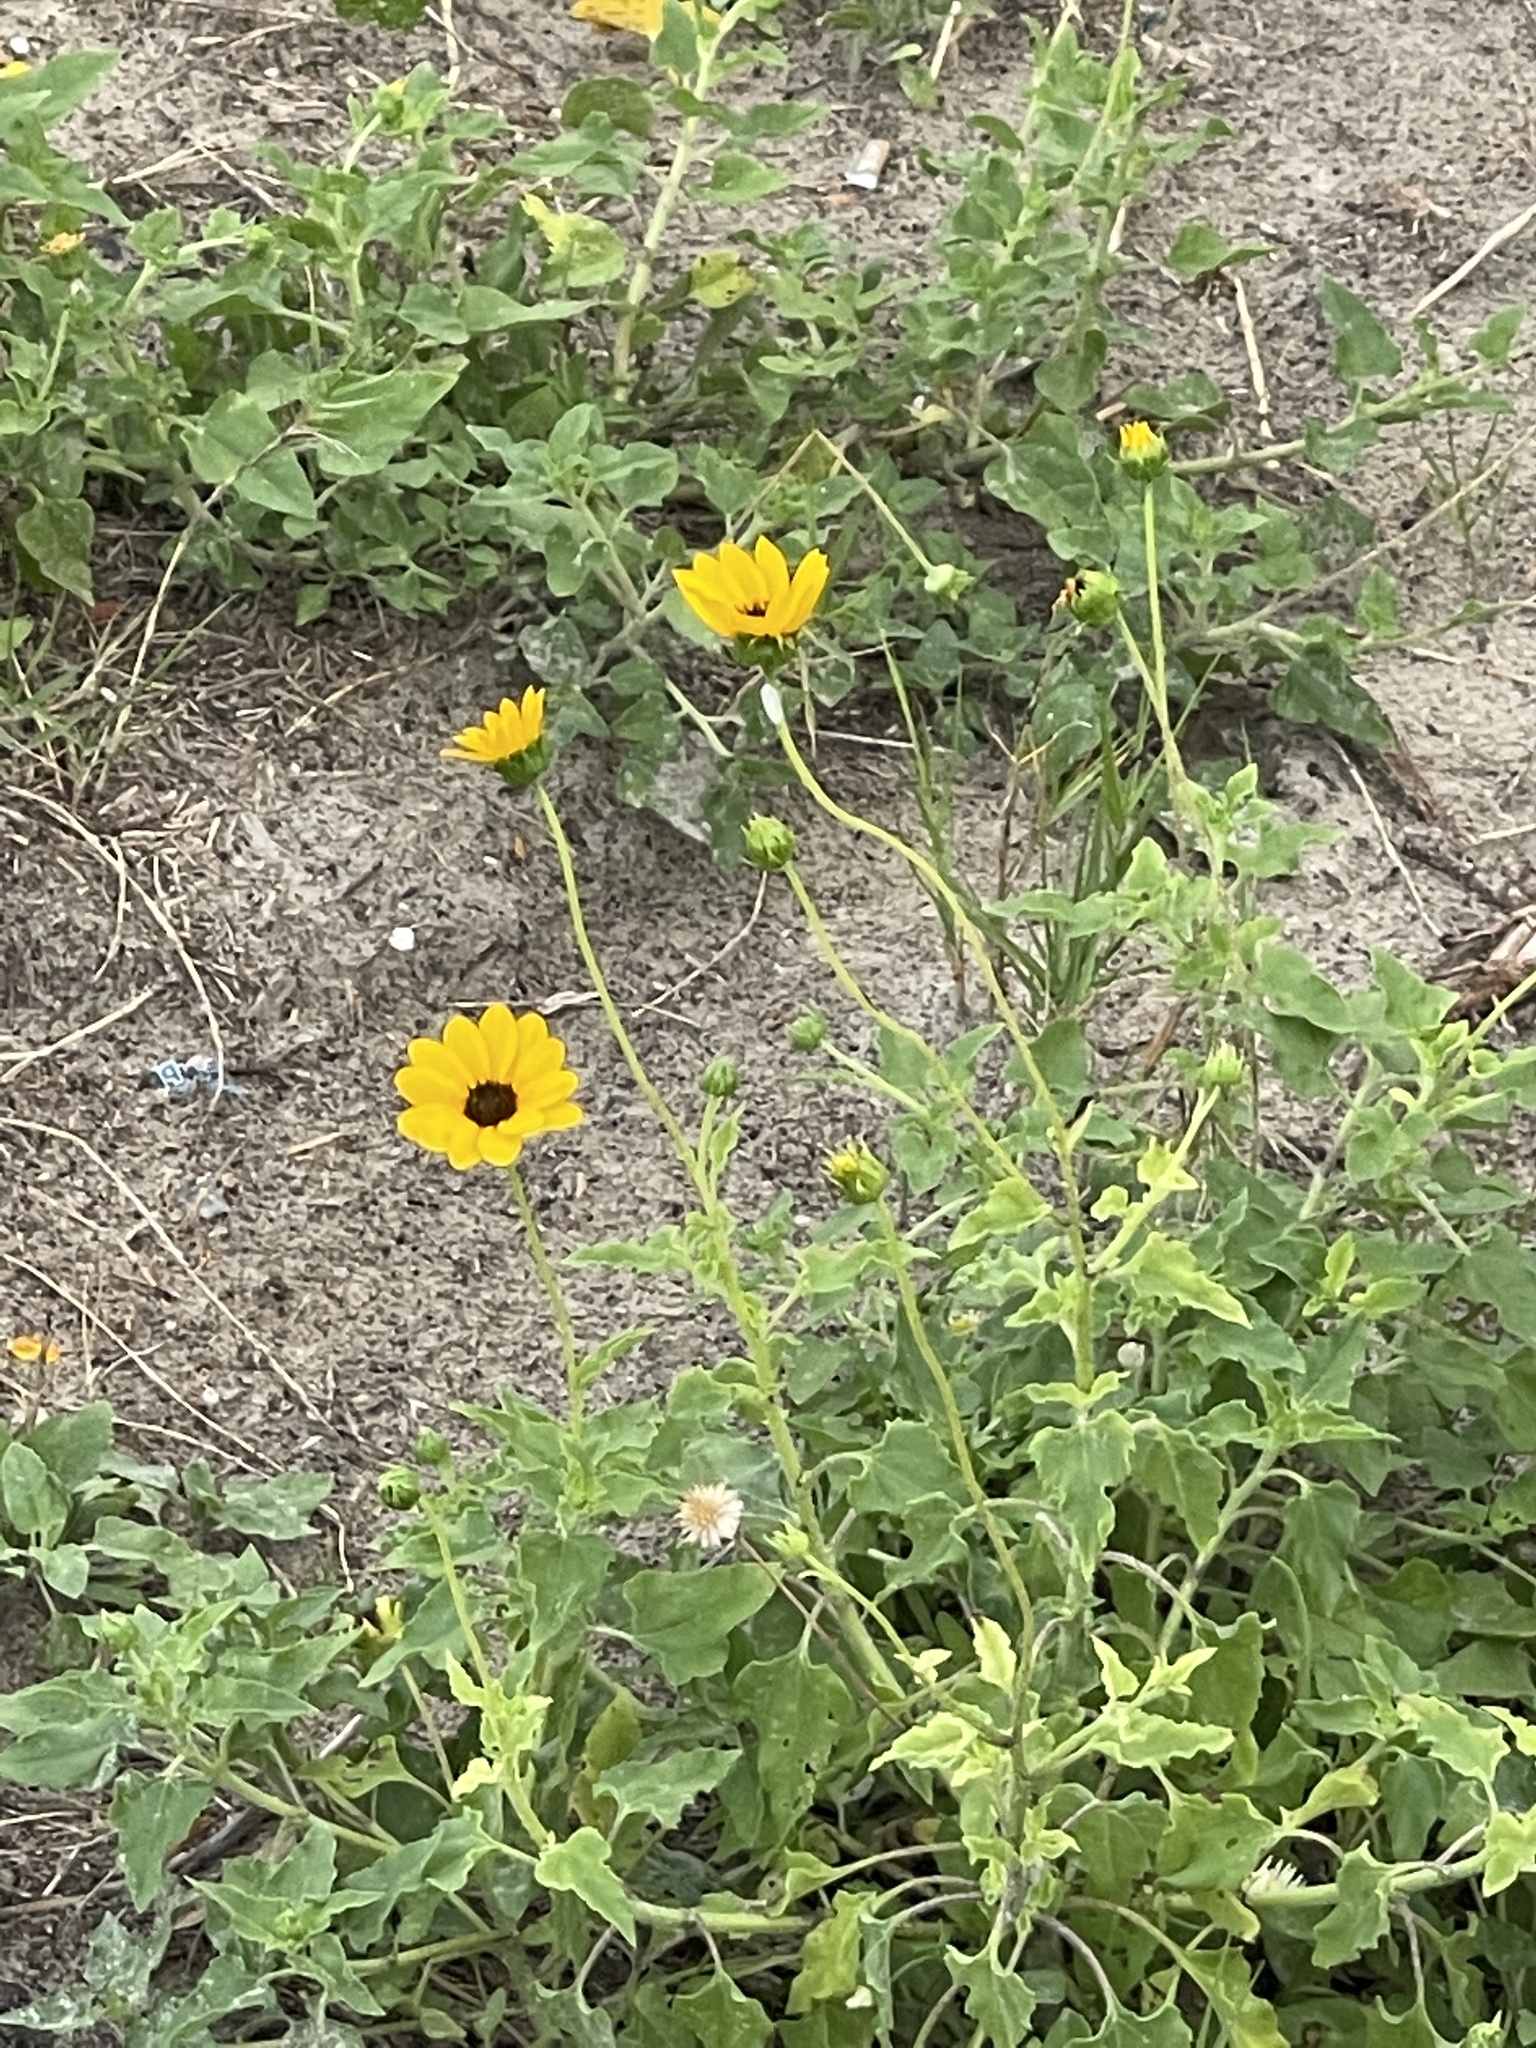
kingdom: Plantae
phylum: Tracheophyta
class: Magnoliopsida
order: Asterales
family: Asteraceae
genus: Helianthus
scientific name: Helianthus debilis
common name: Weak sunflower
